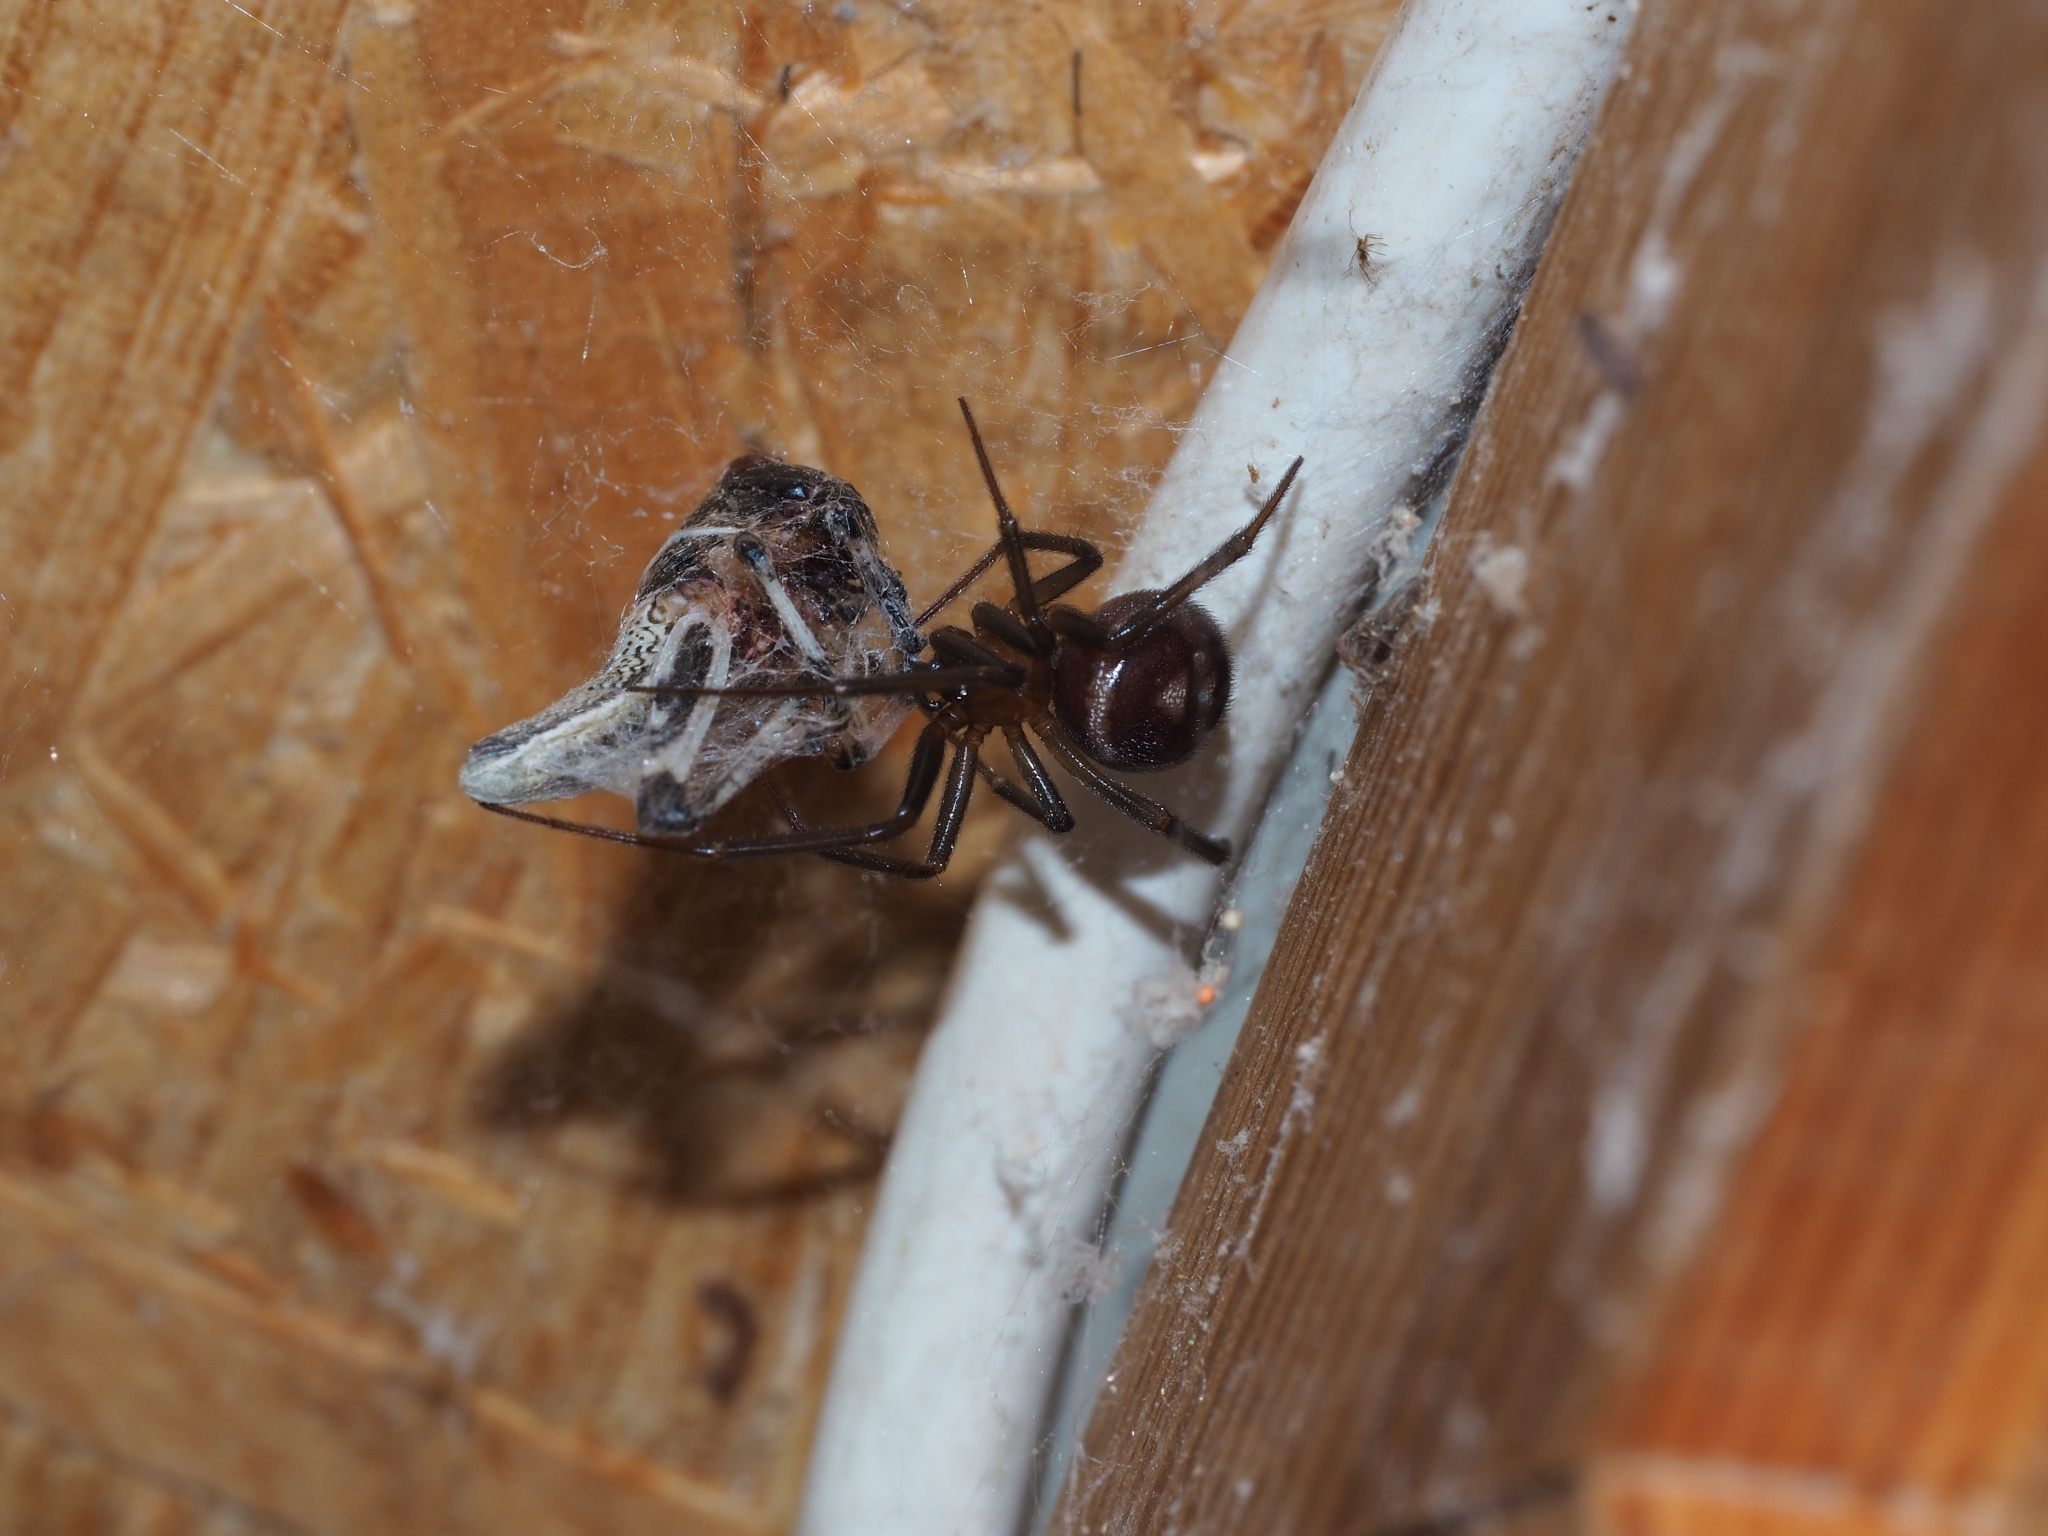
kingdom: Animalia
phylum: Arthropoda
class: Arachnida
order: Araneae
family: Theridiidae
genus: Steatoda
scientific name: Steatoda grossa
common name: False black widow
